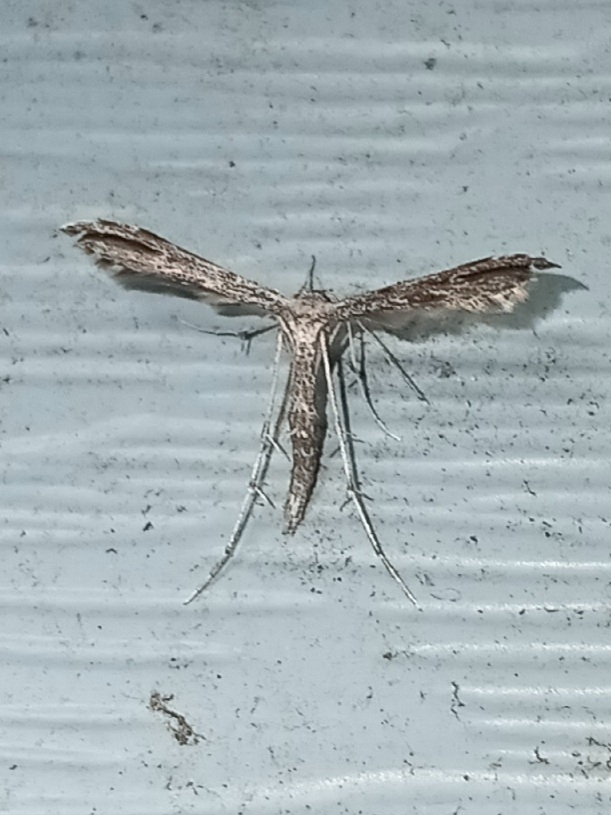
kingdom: Animalia
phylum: Arthropoda
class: Insecta
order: Lepidoptera
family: Pterophoridae
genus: Hellinsia
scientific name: Hellinsia inquinatus
